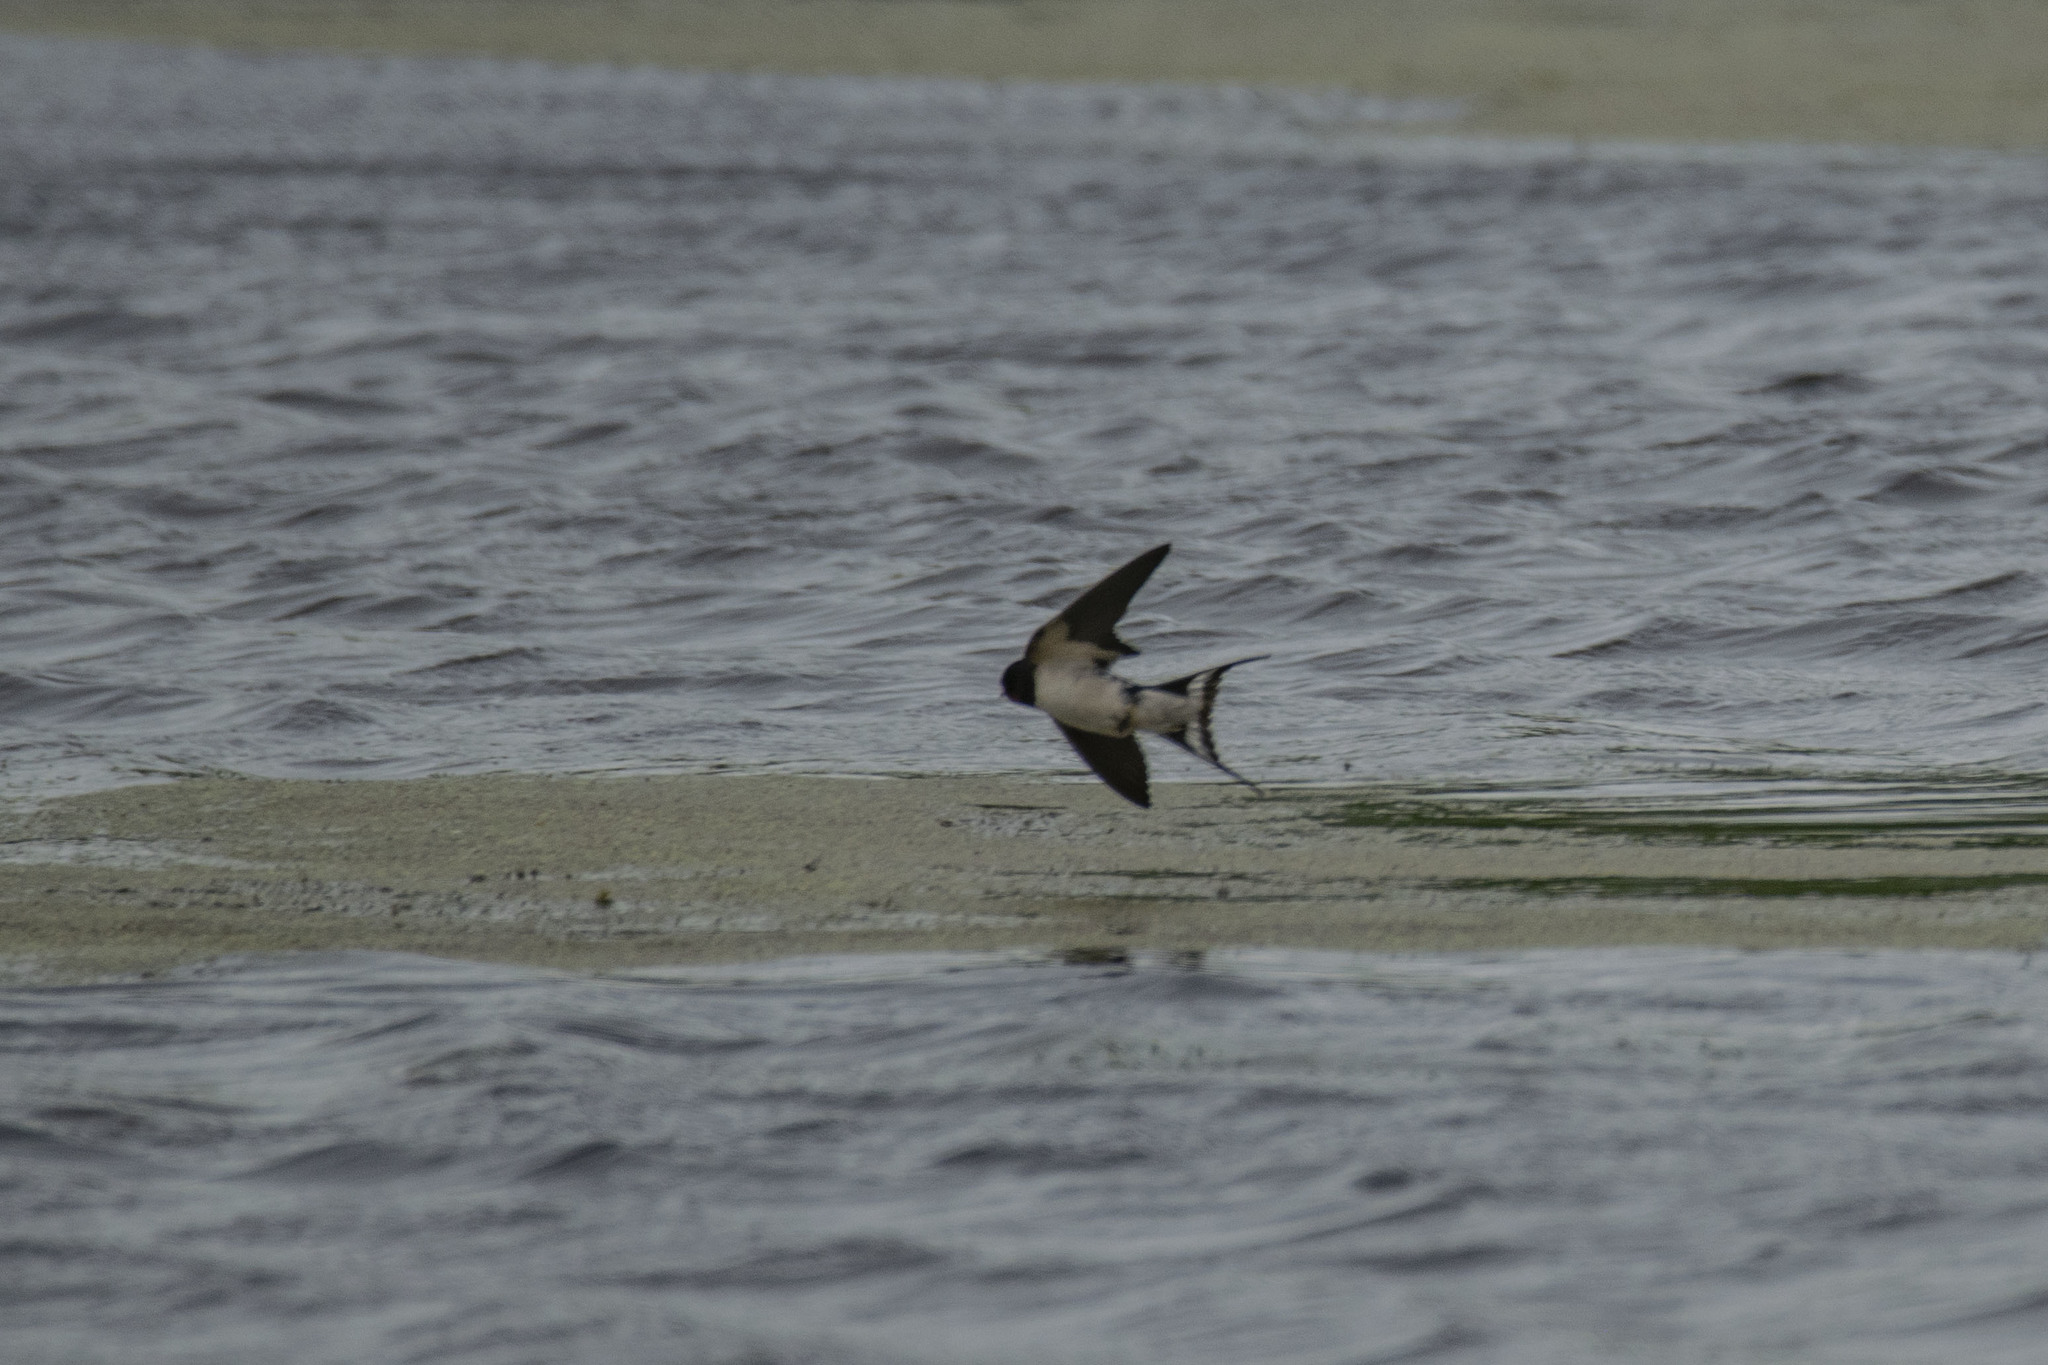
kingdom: Animalia
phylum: Chordata
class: Aves
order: Passeriformes
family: Hirundinidae
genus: Hirundo
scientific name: Hirundo rustica
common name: Barn swallow
